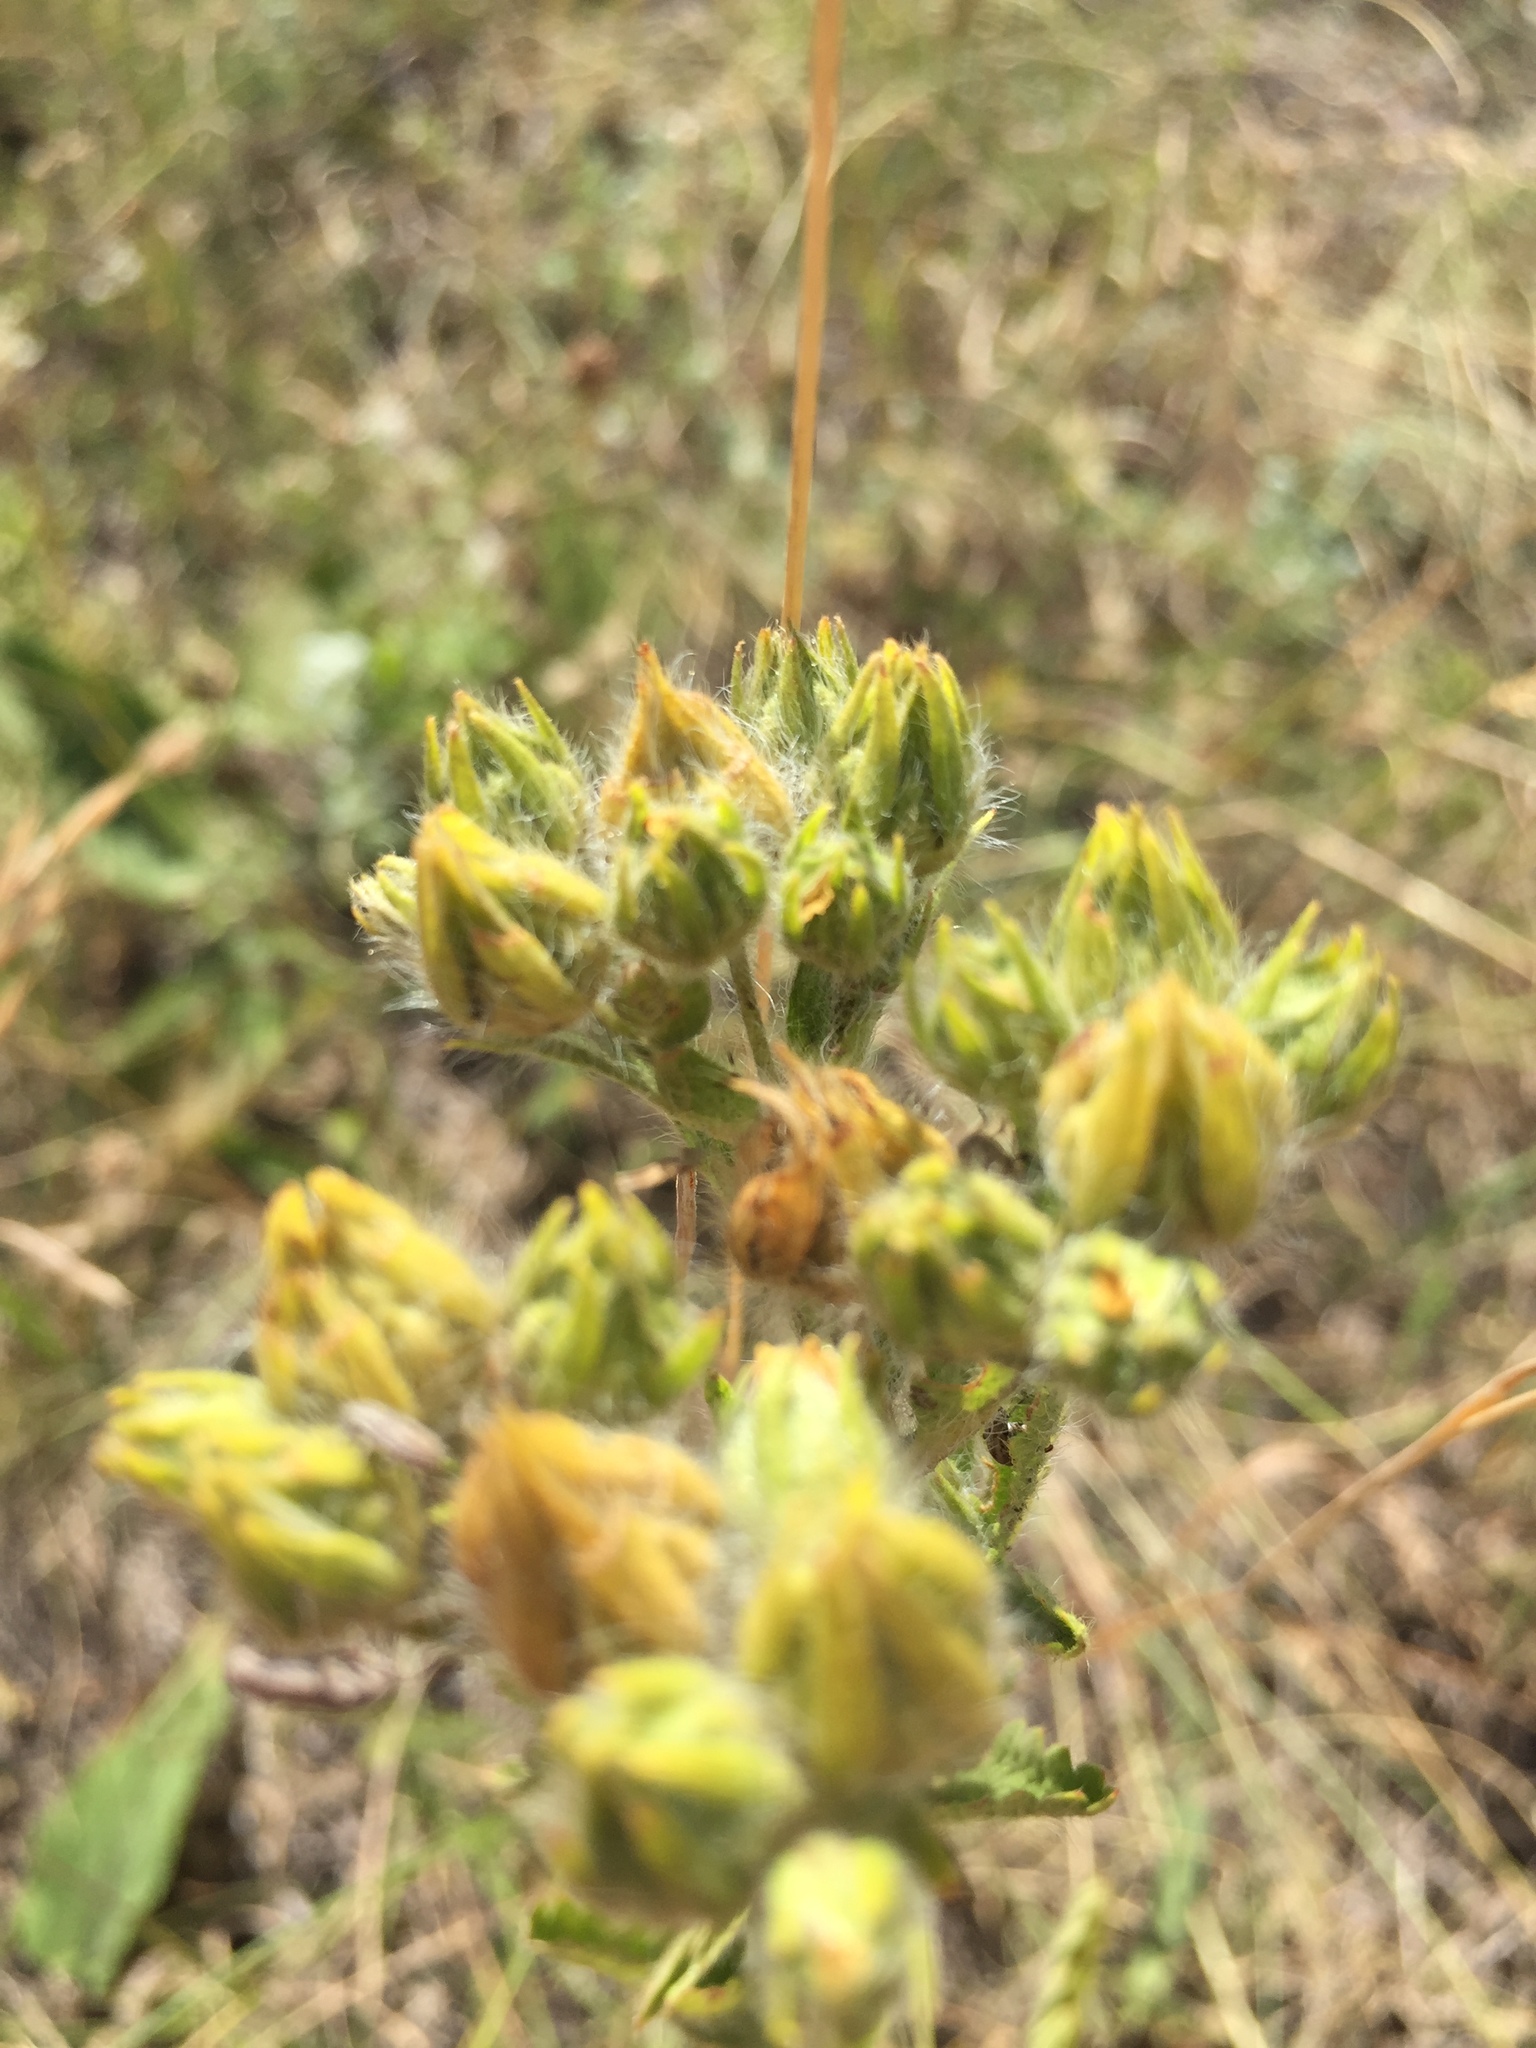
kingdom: Plantae
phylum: Tracheophyta
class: Magnoliopsida
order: Rosales
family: Rosaceae
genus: Potentilla
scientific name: Potentilla recta
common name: Sulphur cinquefoil
